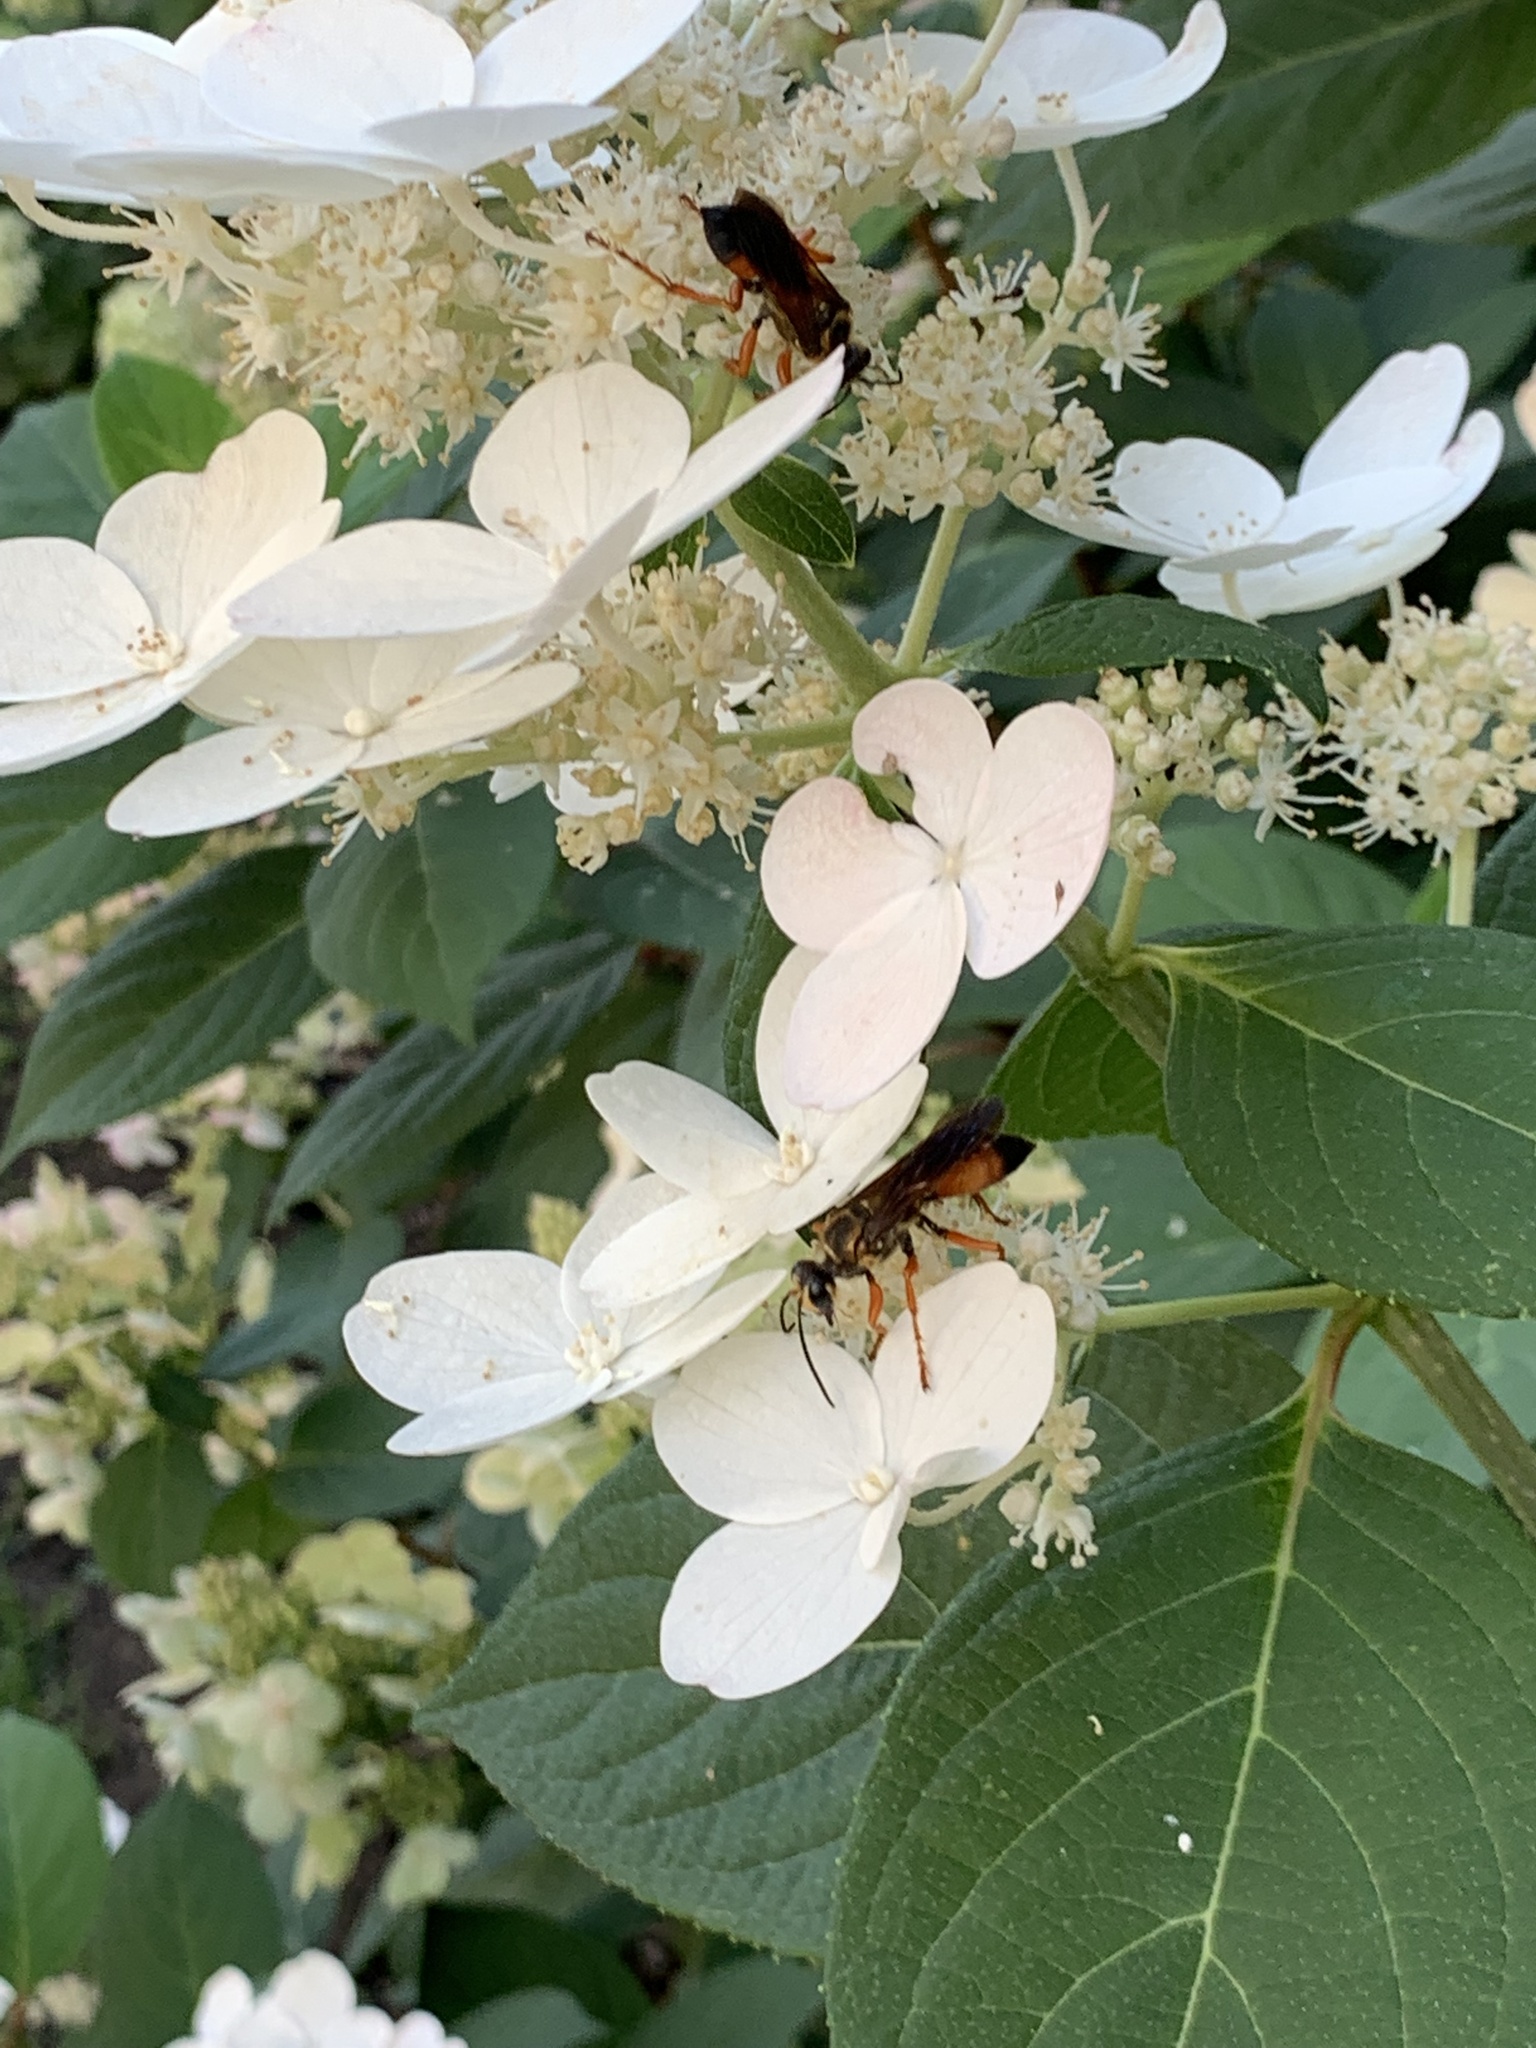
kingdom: Animalia
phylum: Arthropoda
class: Insecta
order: Hymenoptera
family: Sphecidae
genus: Sphex
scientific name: Sphex ichneumoneus
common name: Great golden digger wasp
